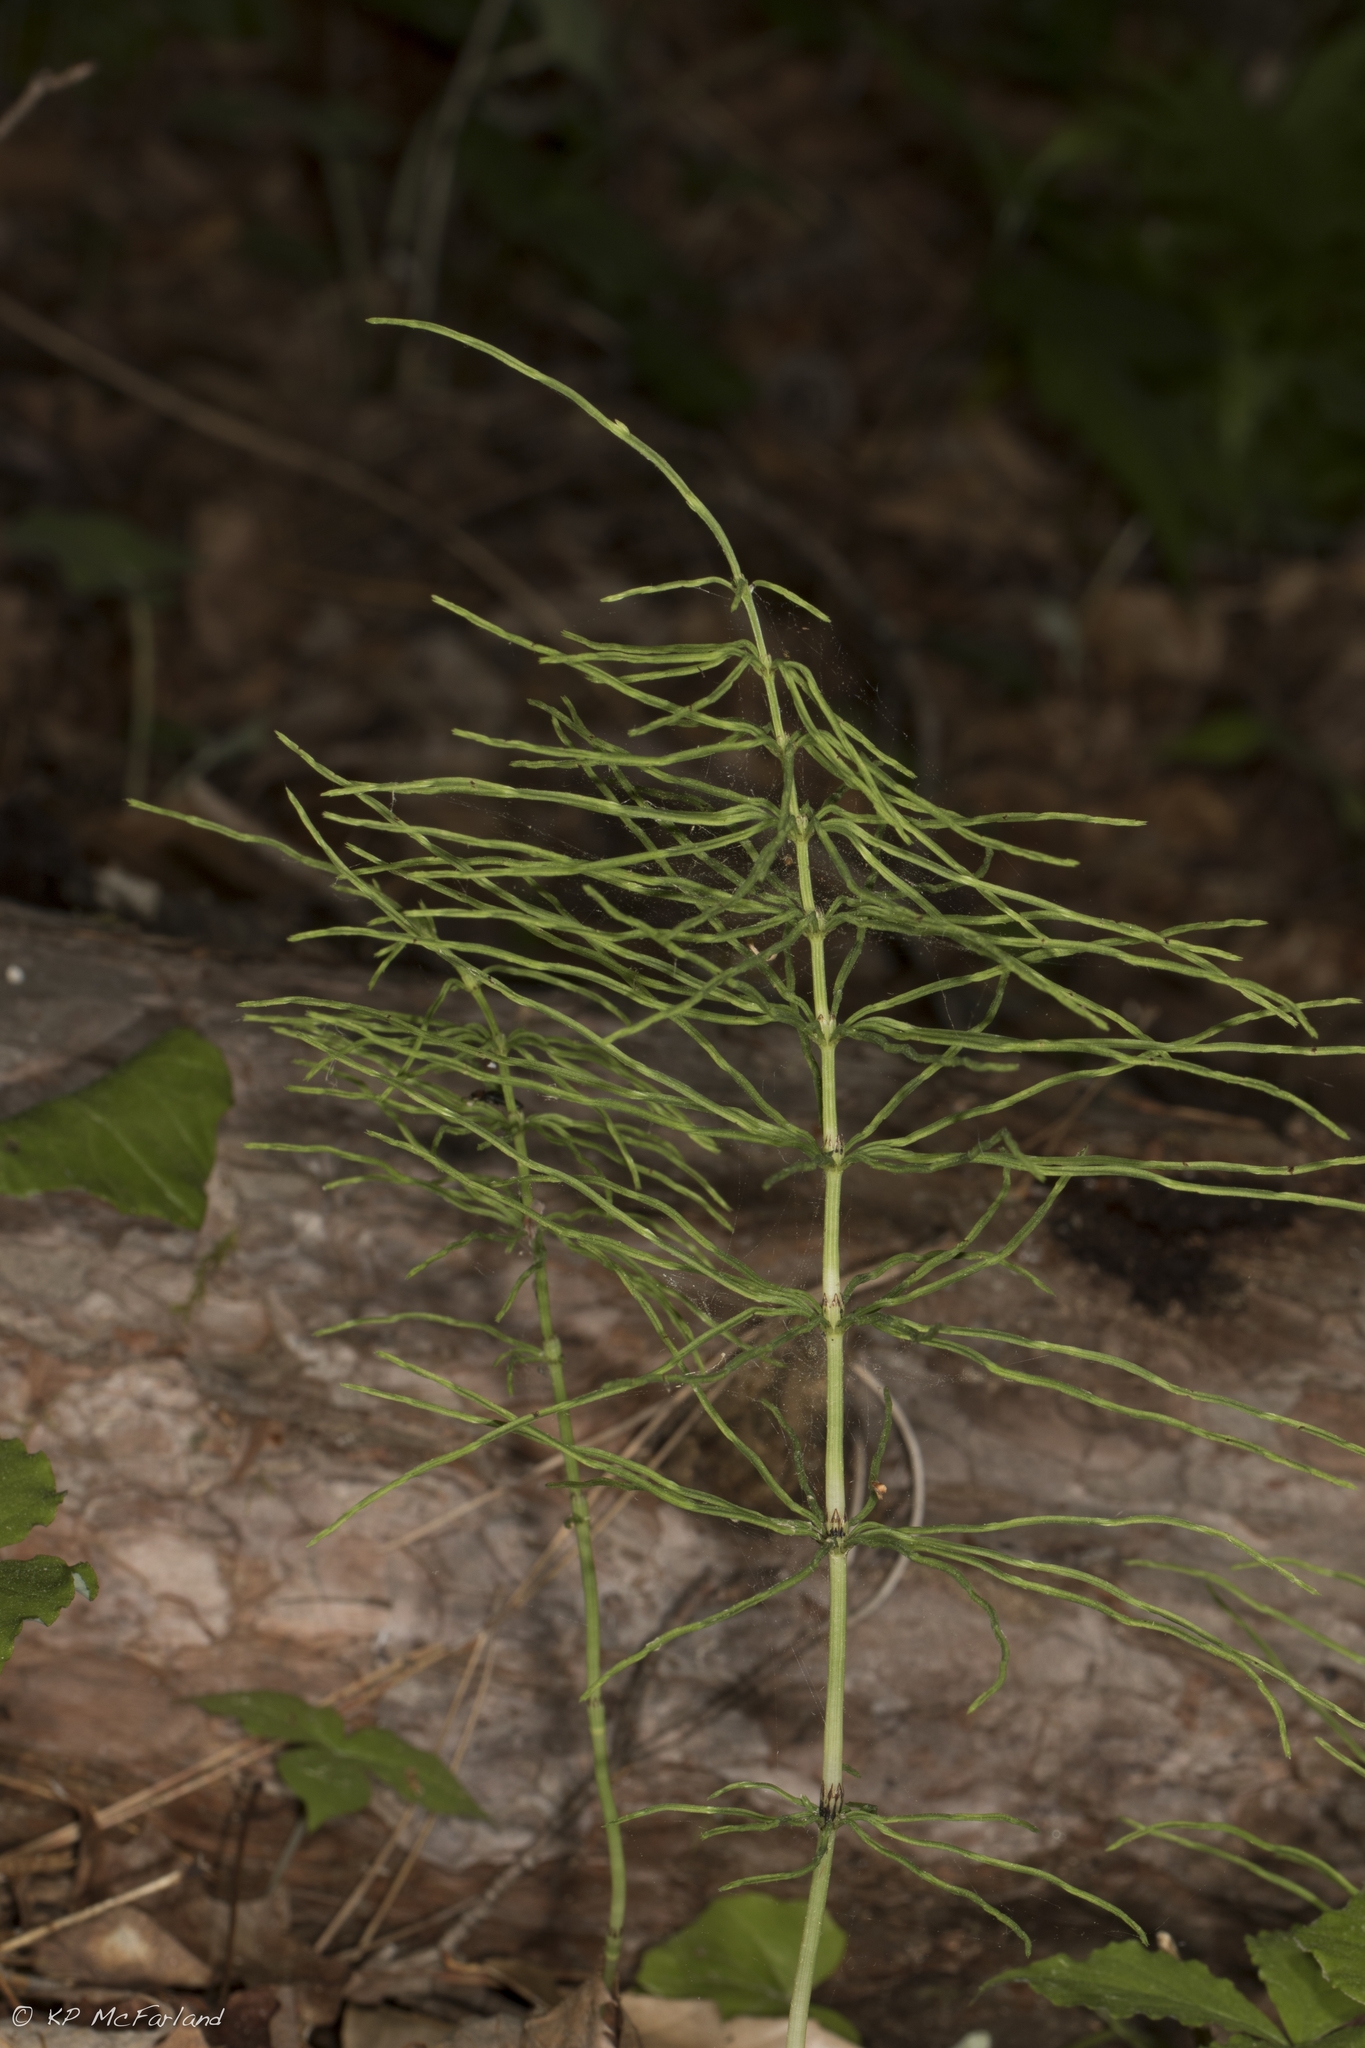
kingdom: Plantae
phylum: Tracheophyta
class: Polypodiopsida
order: Equisetales
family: Equisetaceae
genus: Equisetum
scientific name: Equisetum arvense
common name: Field horsetail
